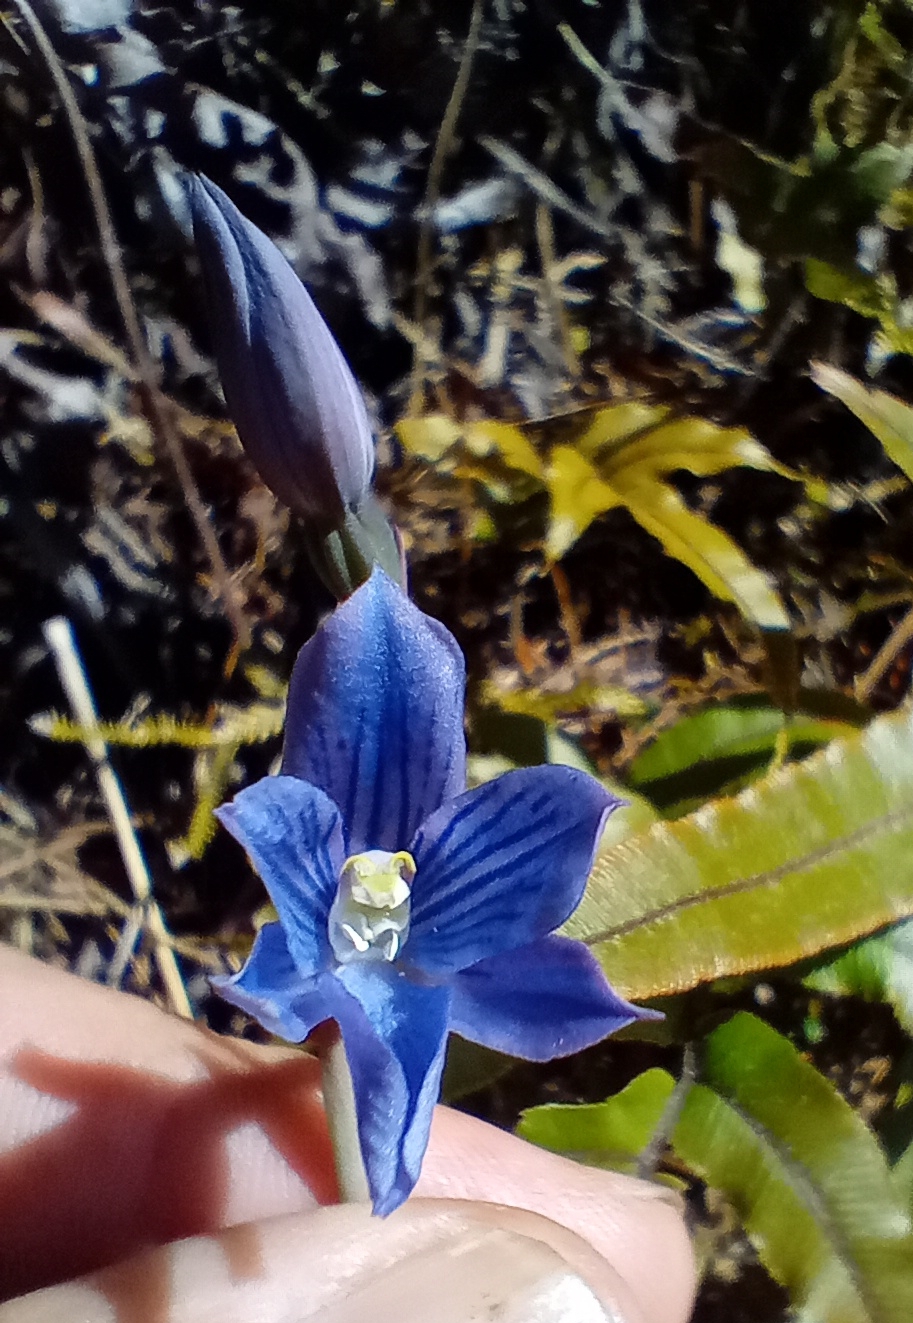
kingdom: Plantae
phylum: Tracheophyta
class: Liliopsida
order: Asparagales
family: Orchidaceae
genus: Thelymitra
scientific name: Thelymitra cyanea
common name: Blue sun-orchid
